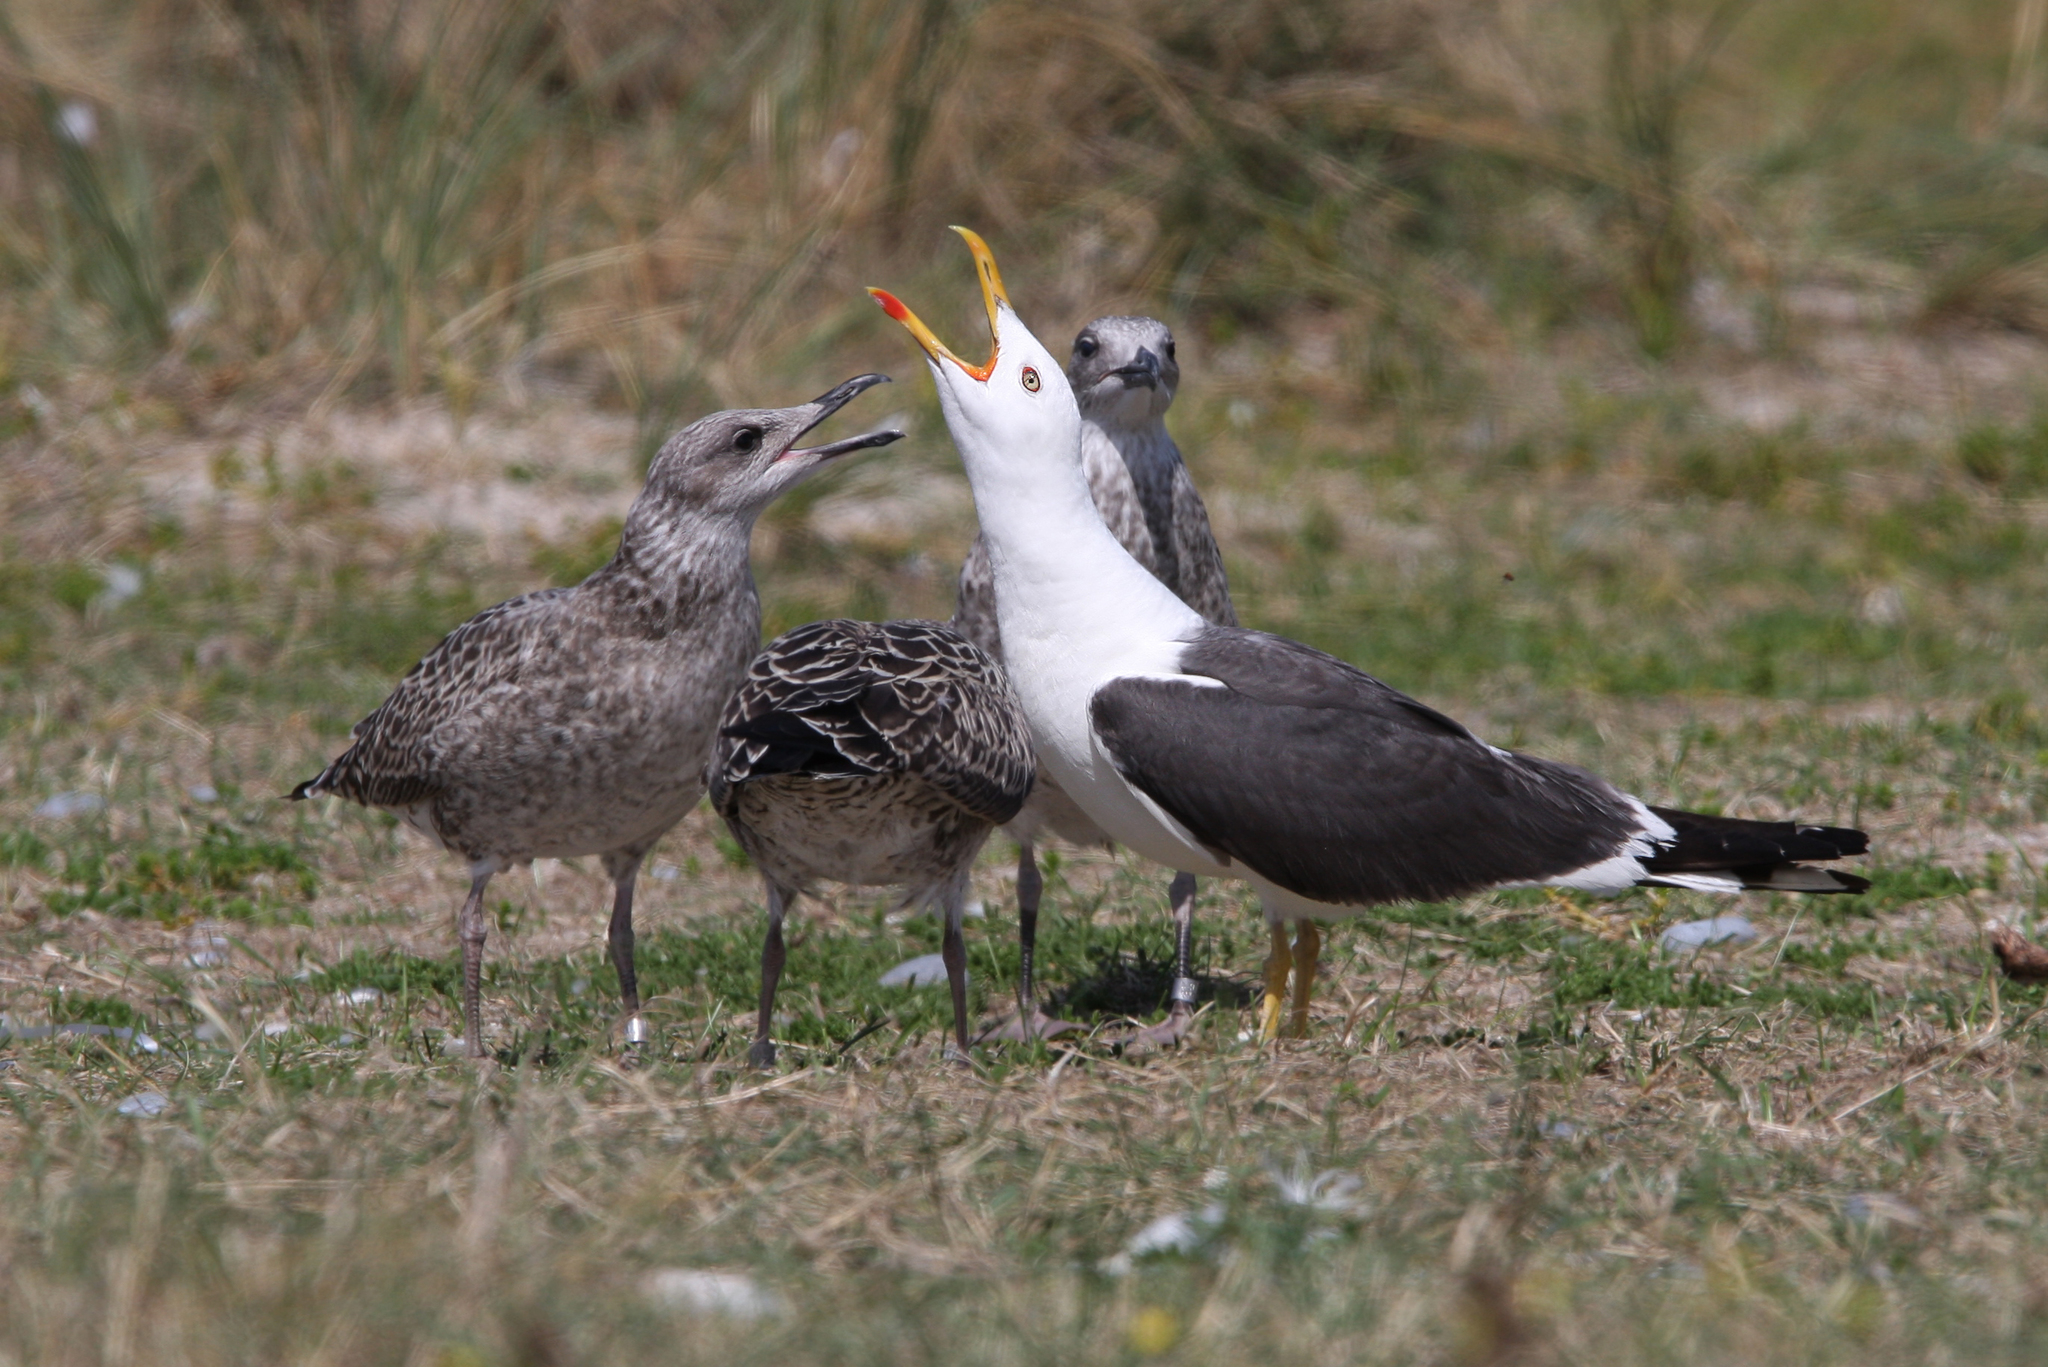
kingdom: Animalia
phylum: Chordata
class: Aves
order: Charadriiformes
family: Laridae
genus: Larus
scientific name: Larus fuscus
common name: Lesser black-backed gull
